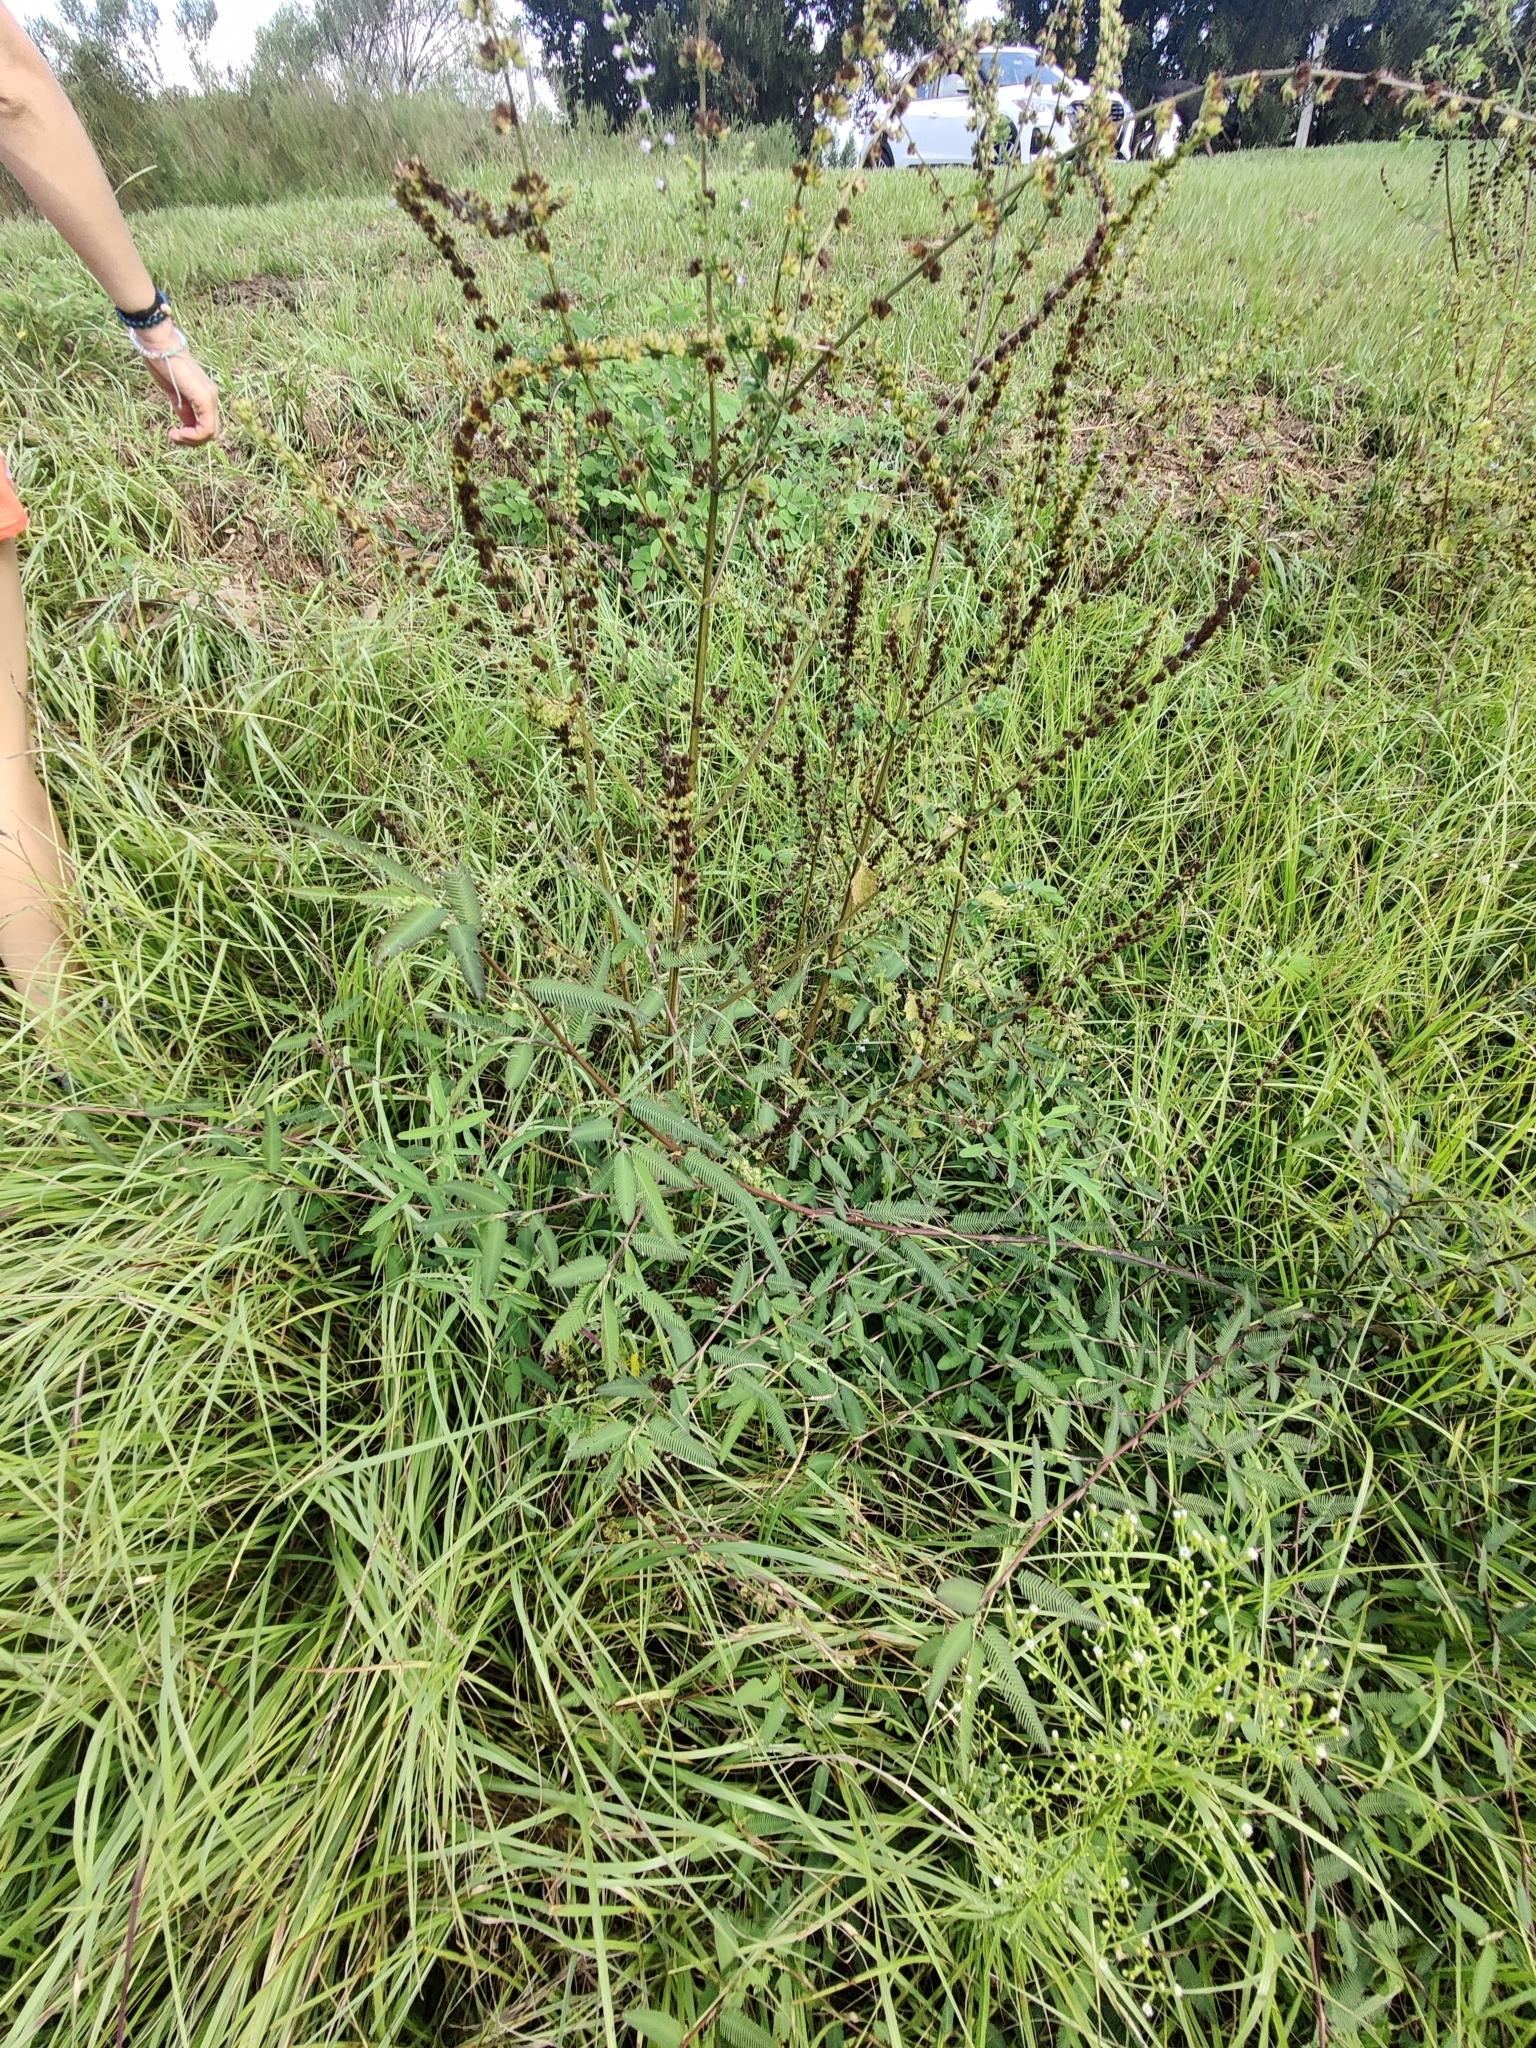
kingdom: Plantae
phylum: Tracheophyta
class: Magnoliopsida
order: Fabales
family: Fabaceae
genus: Aeschynomene
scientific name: Aeschynomene americana
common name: Joint-vetch
